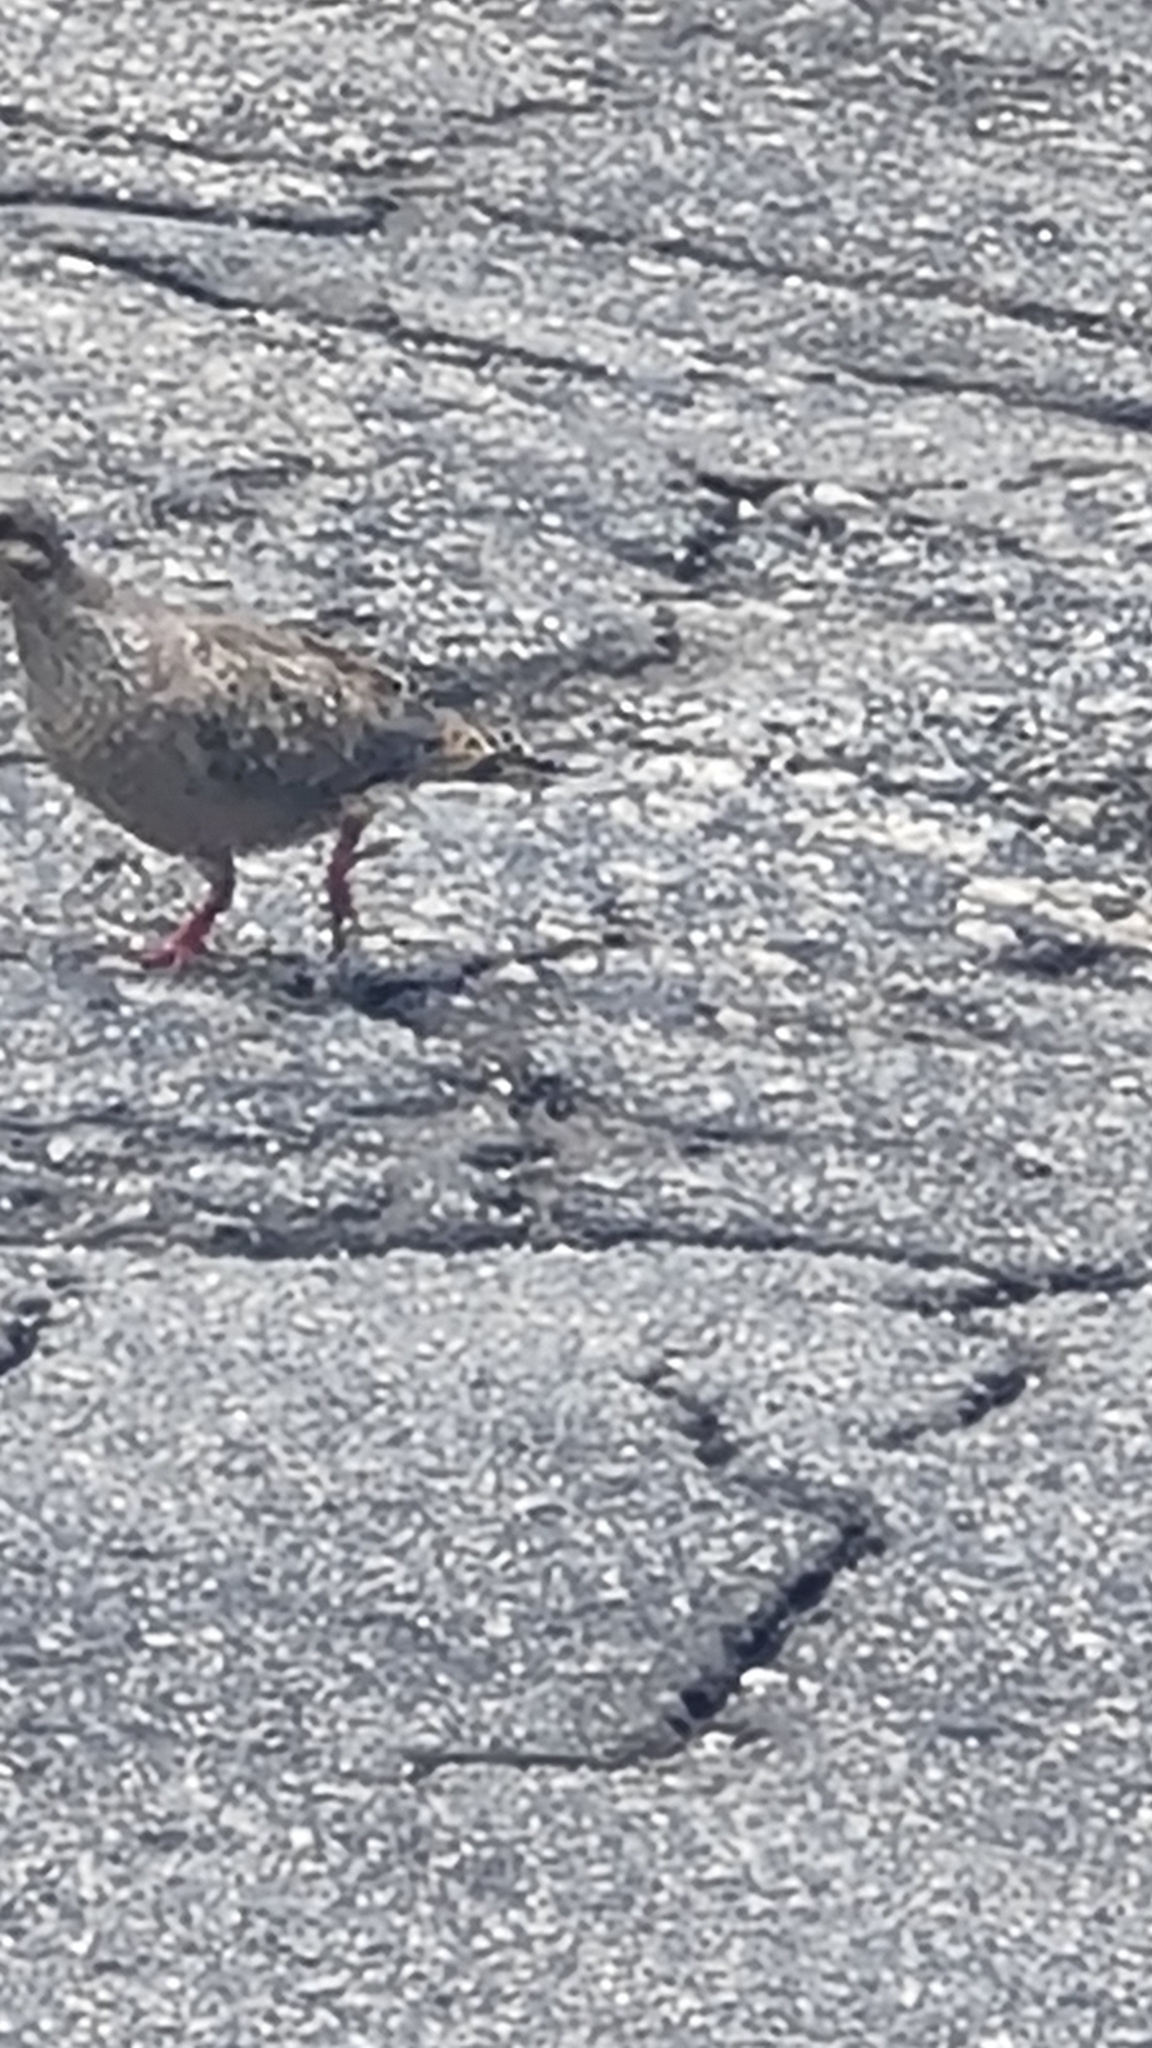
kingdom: Animalia
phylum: Chordata
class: Aves
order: Columbiformes
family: Columbidae
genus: Zenaida
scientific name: Zenaida auriculata
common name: Eared dove
